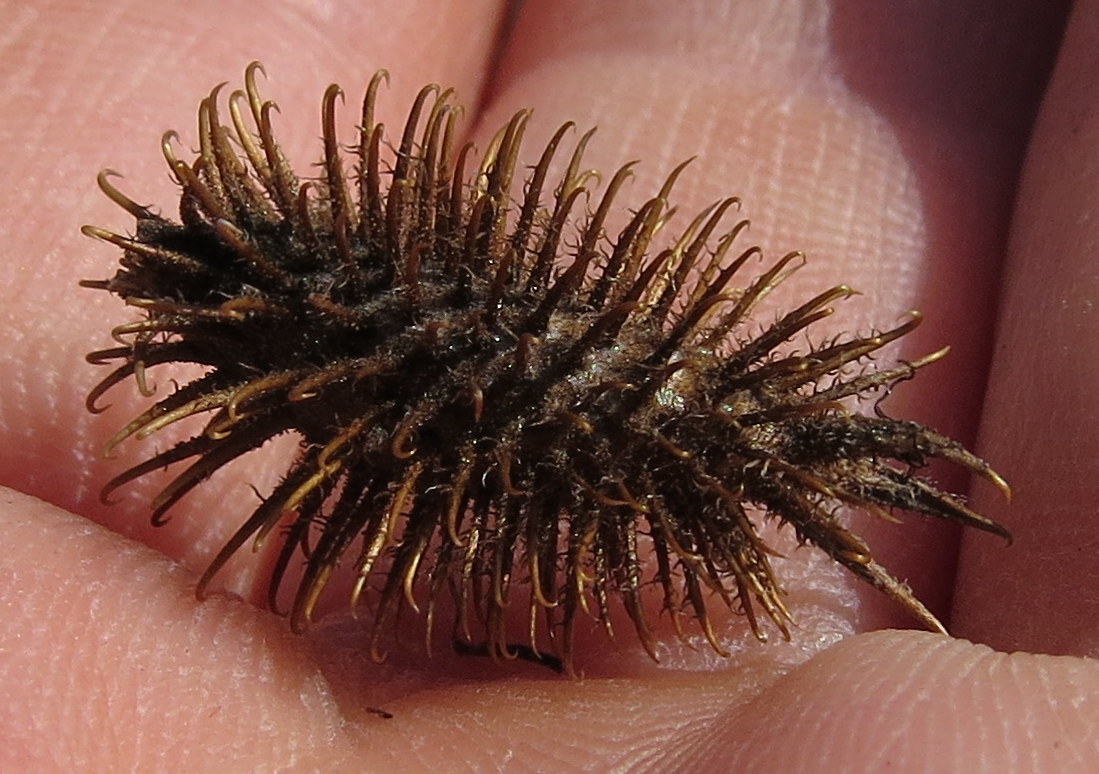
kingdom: Plantae
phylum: Tracheophyta
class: Magnoliopsida
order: Asterales
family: Asteraceae
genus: Xanthium
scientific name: Xanthium strumarium
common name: Rough cocklebur
